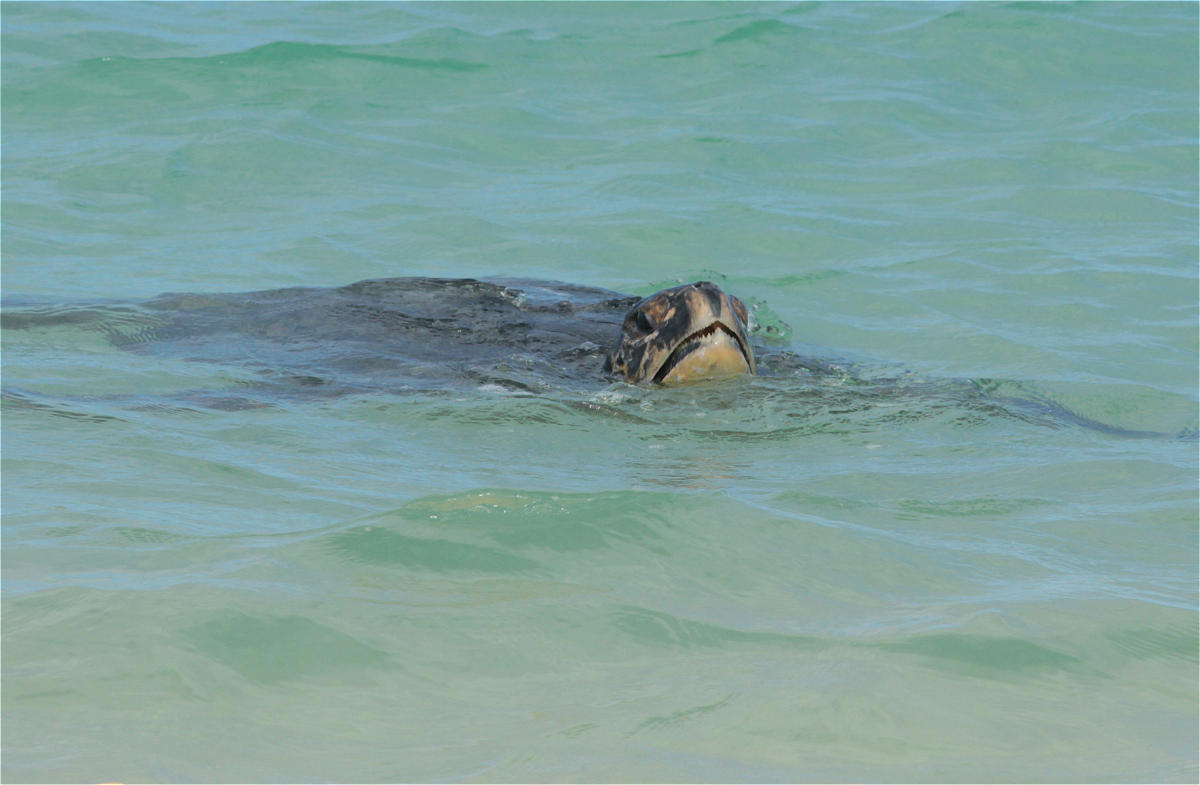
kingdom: Animalia
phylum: Chordata
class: Testudines
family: Cheloniidae
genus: Chelonia
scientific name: Chelonia mydas
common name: Green turtle
